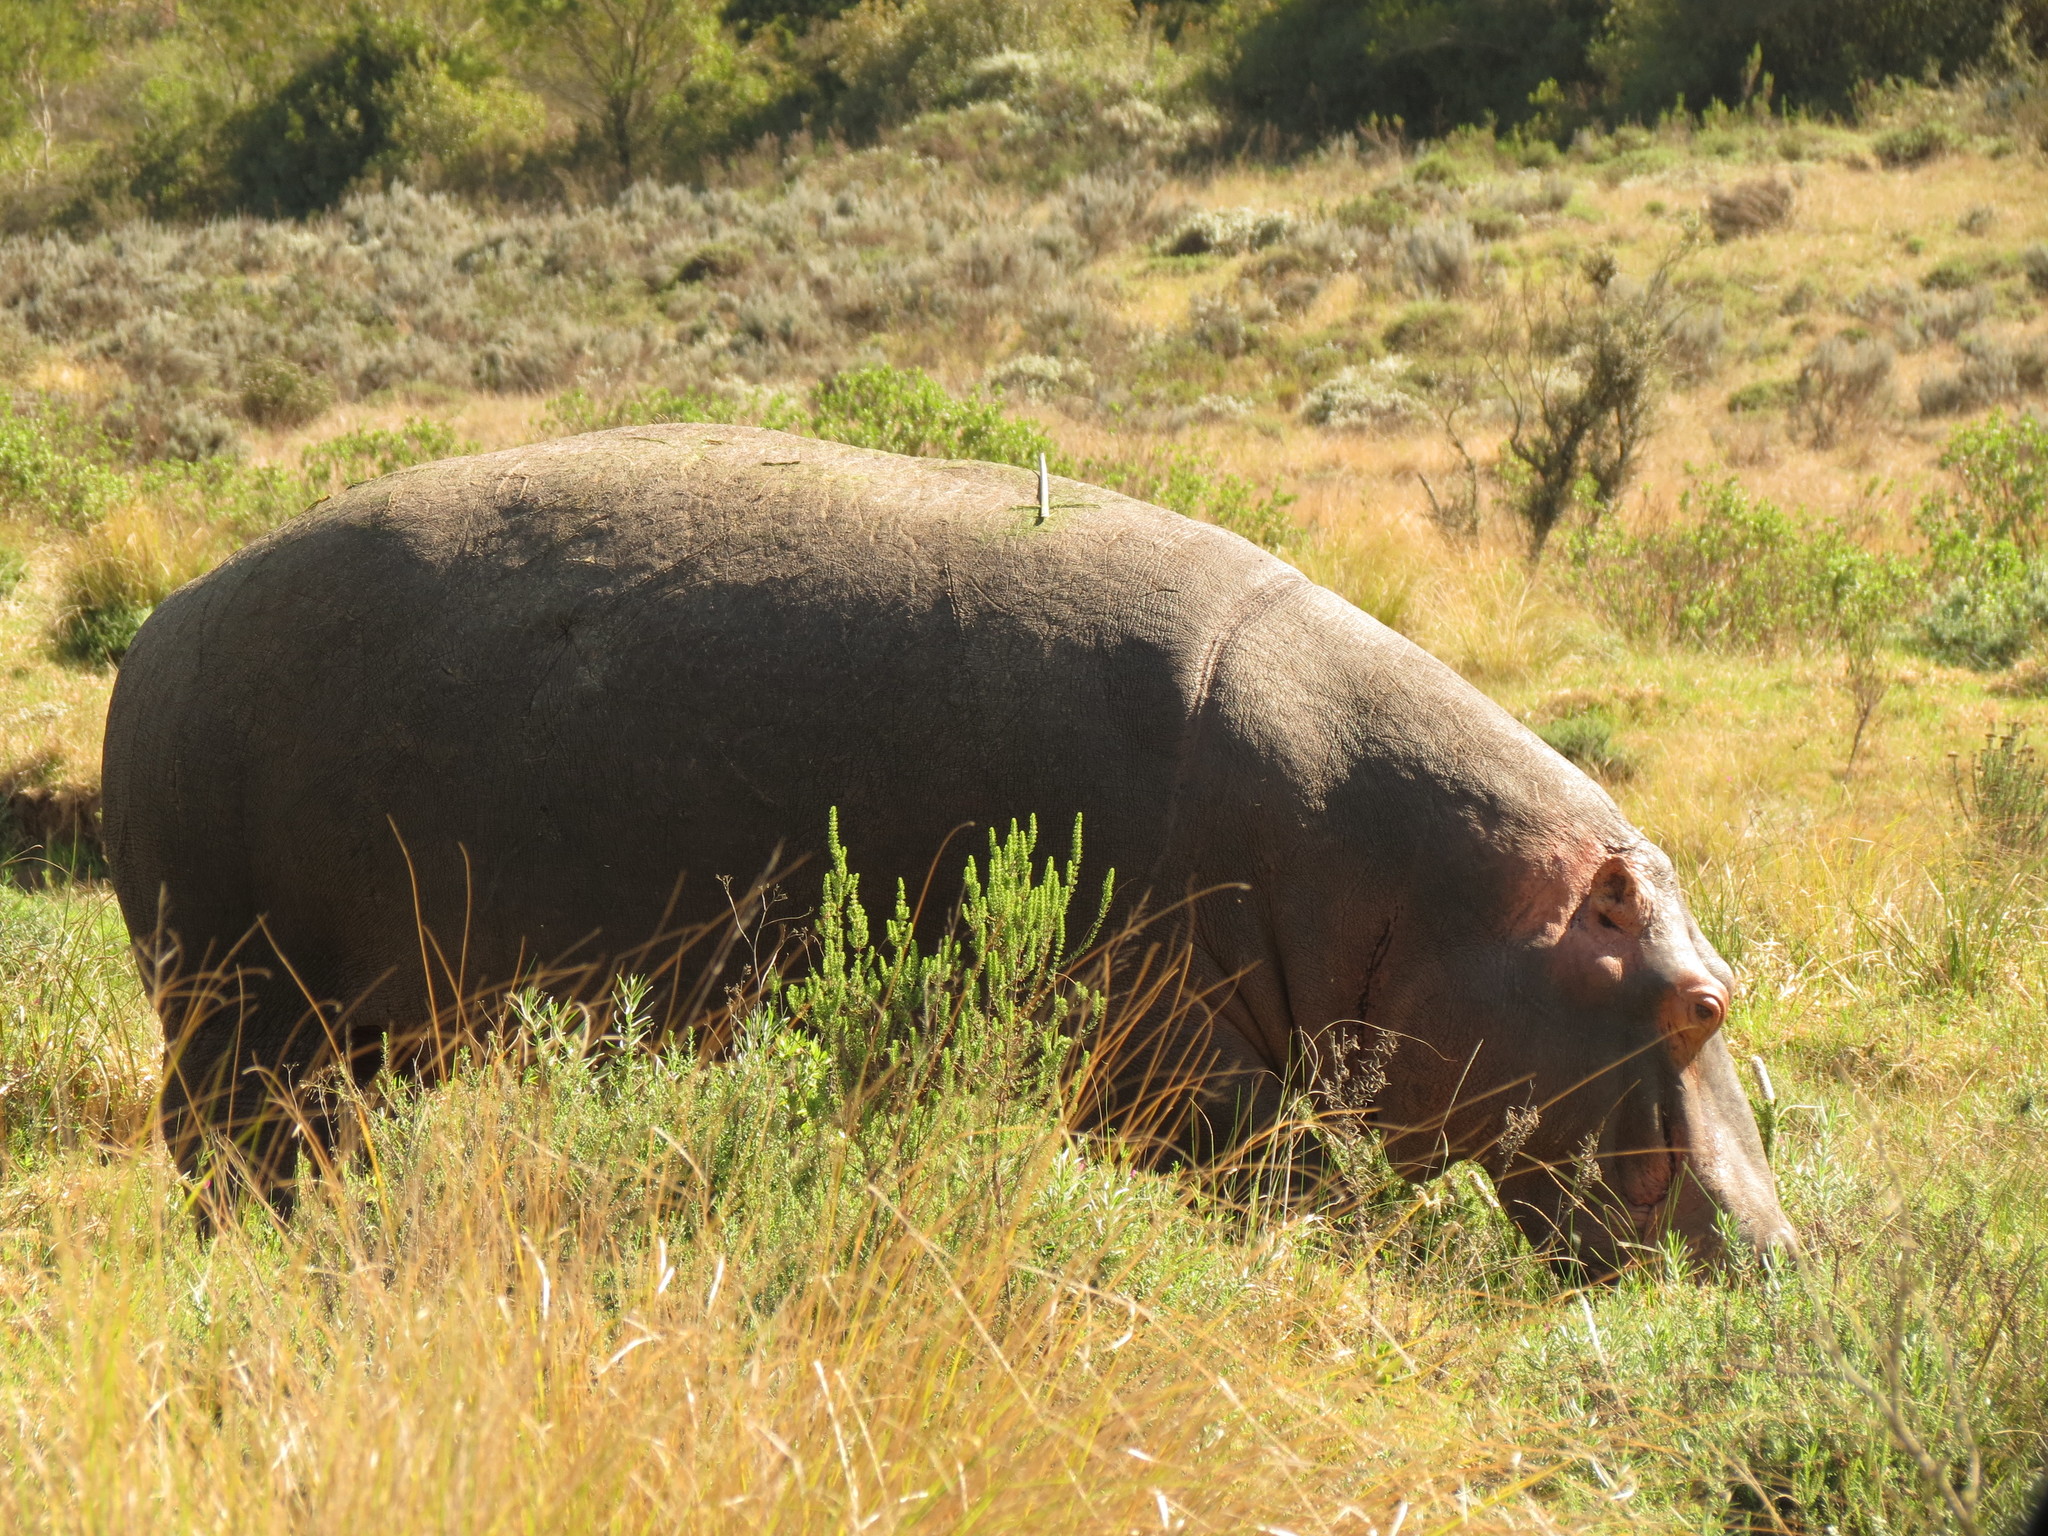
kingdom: Animalia
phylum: Chordata
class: Mammalia
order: Artiodactyla
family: Hippopotamidae
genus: Hippopotamus
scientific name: Hippopotamus amphibius
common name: Common hippopotamus
